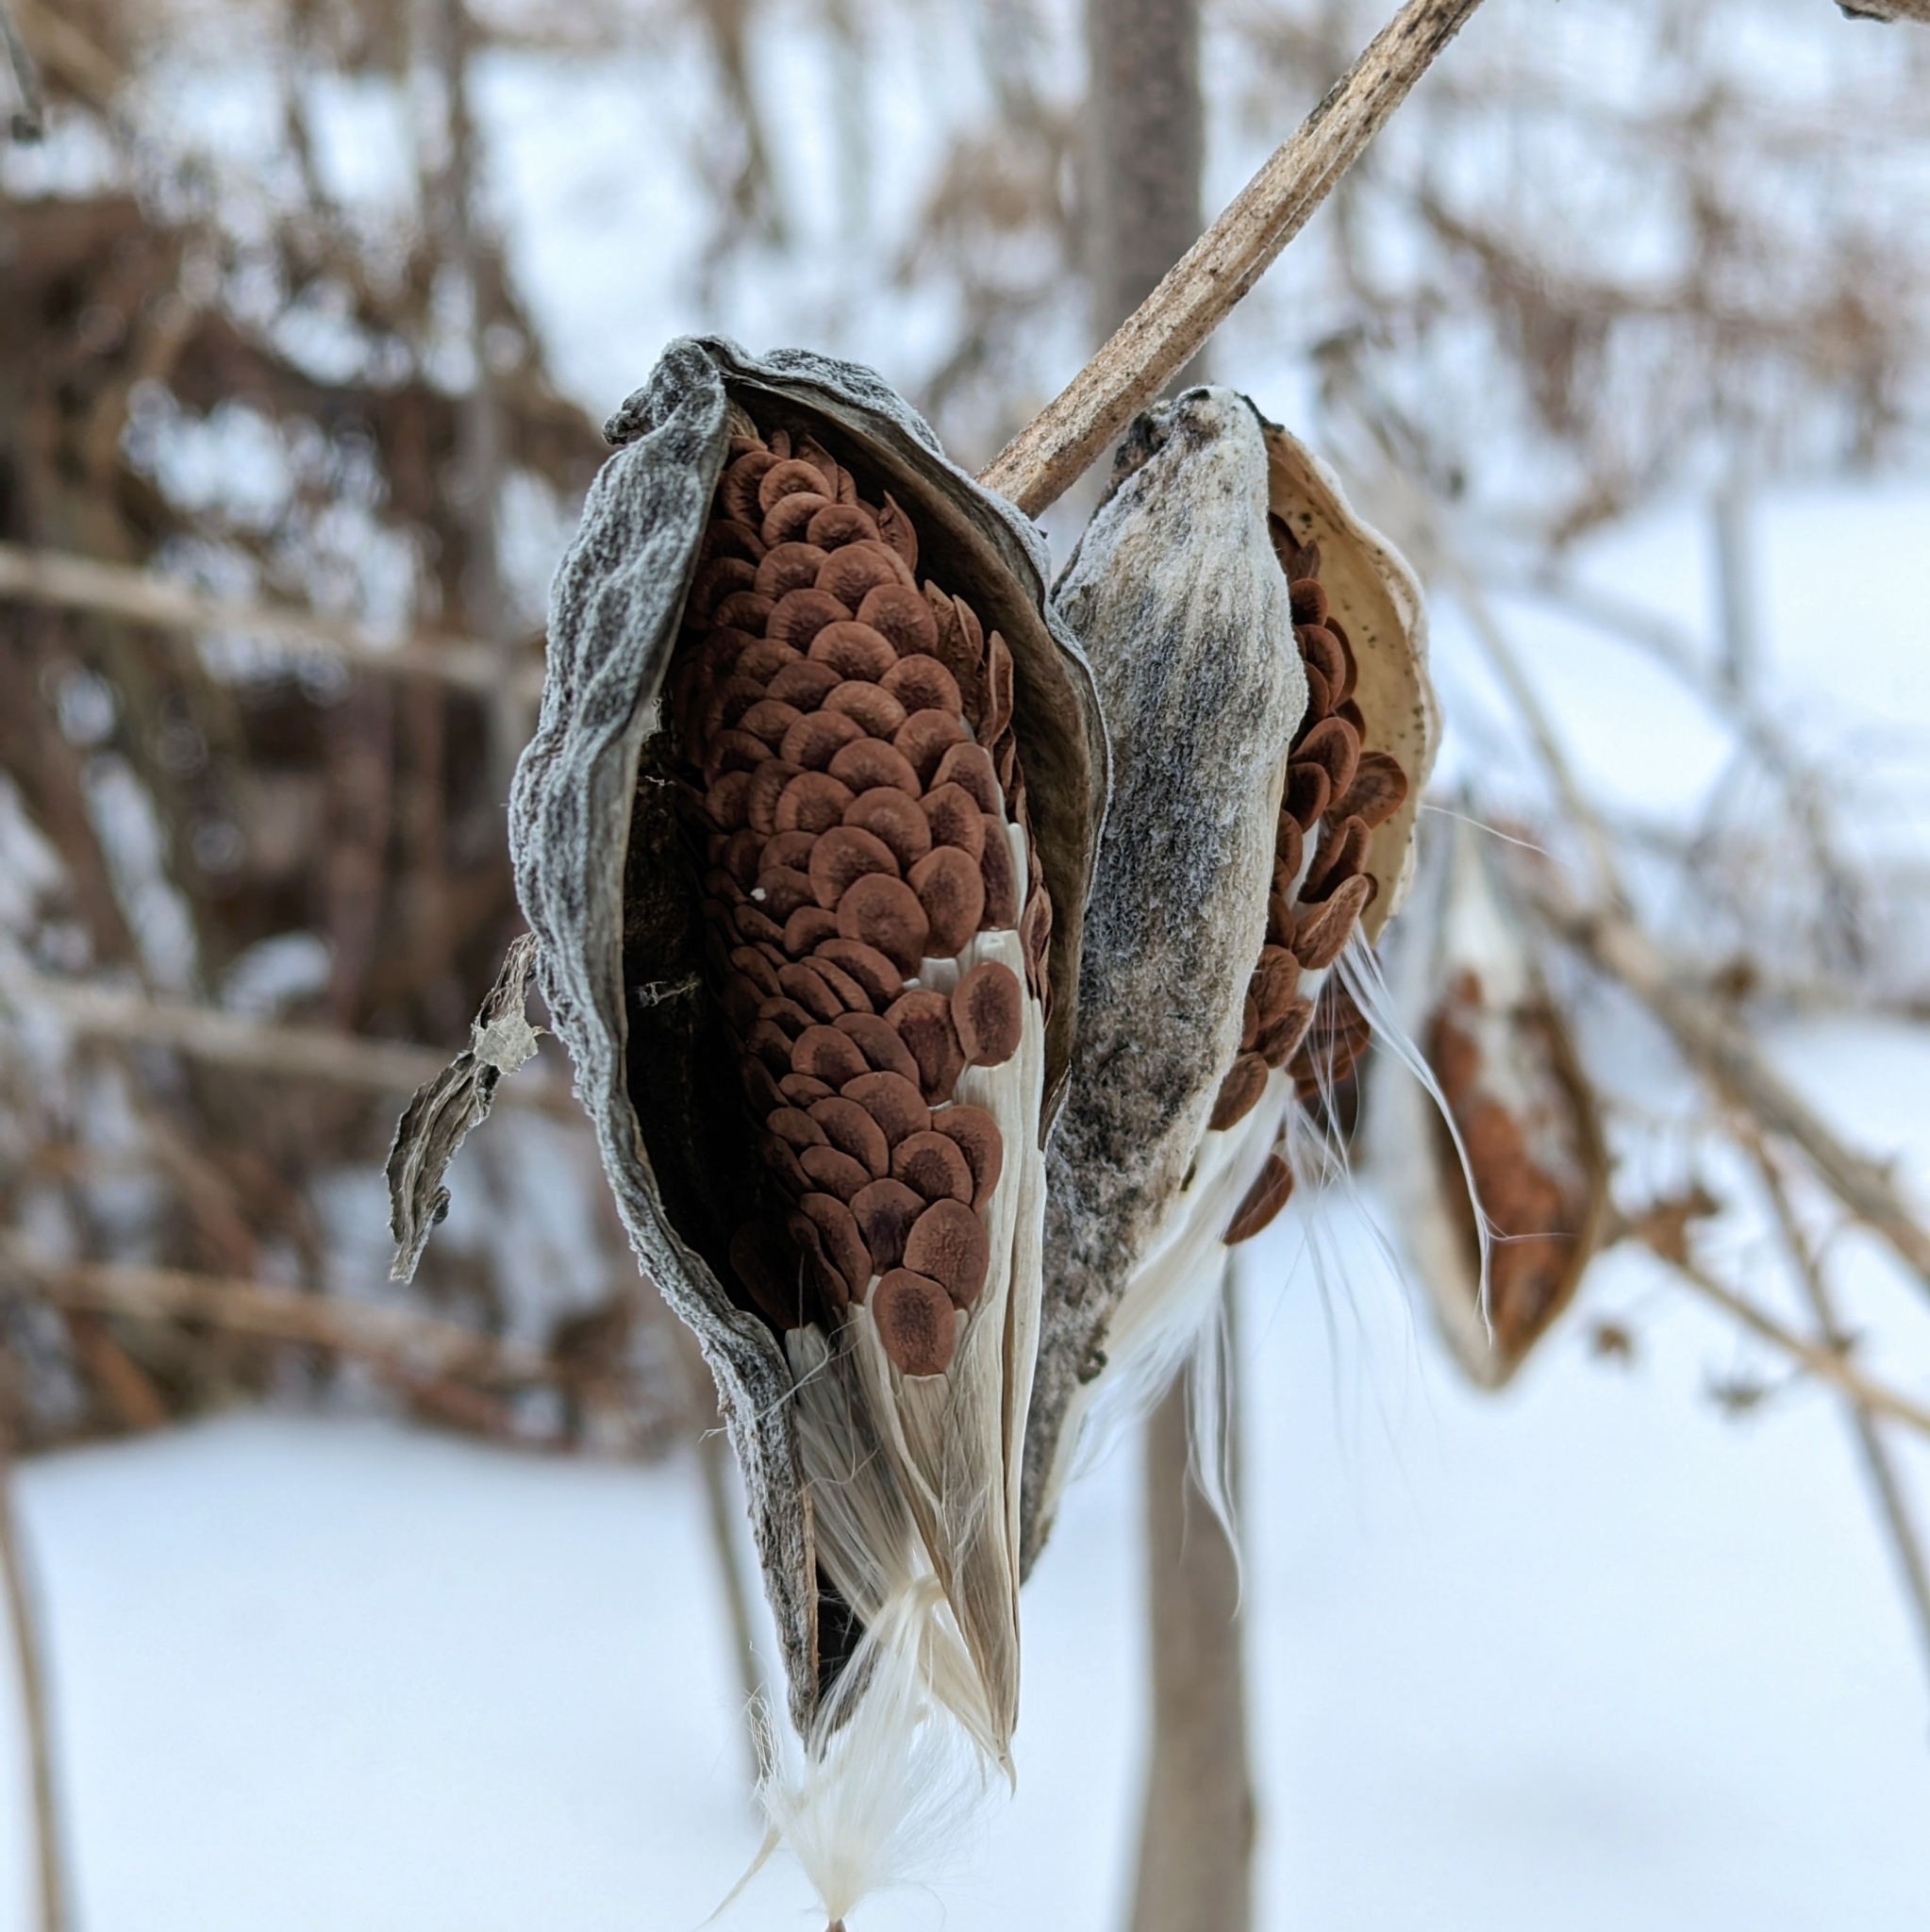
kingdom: Plantae
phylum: Tracheophyta
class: Magnoliopsida
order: Gentianales
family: Apocynaceae
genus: Asclepias
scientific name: Asclepias syriaca
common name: Common milkweed
